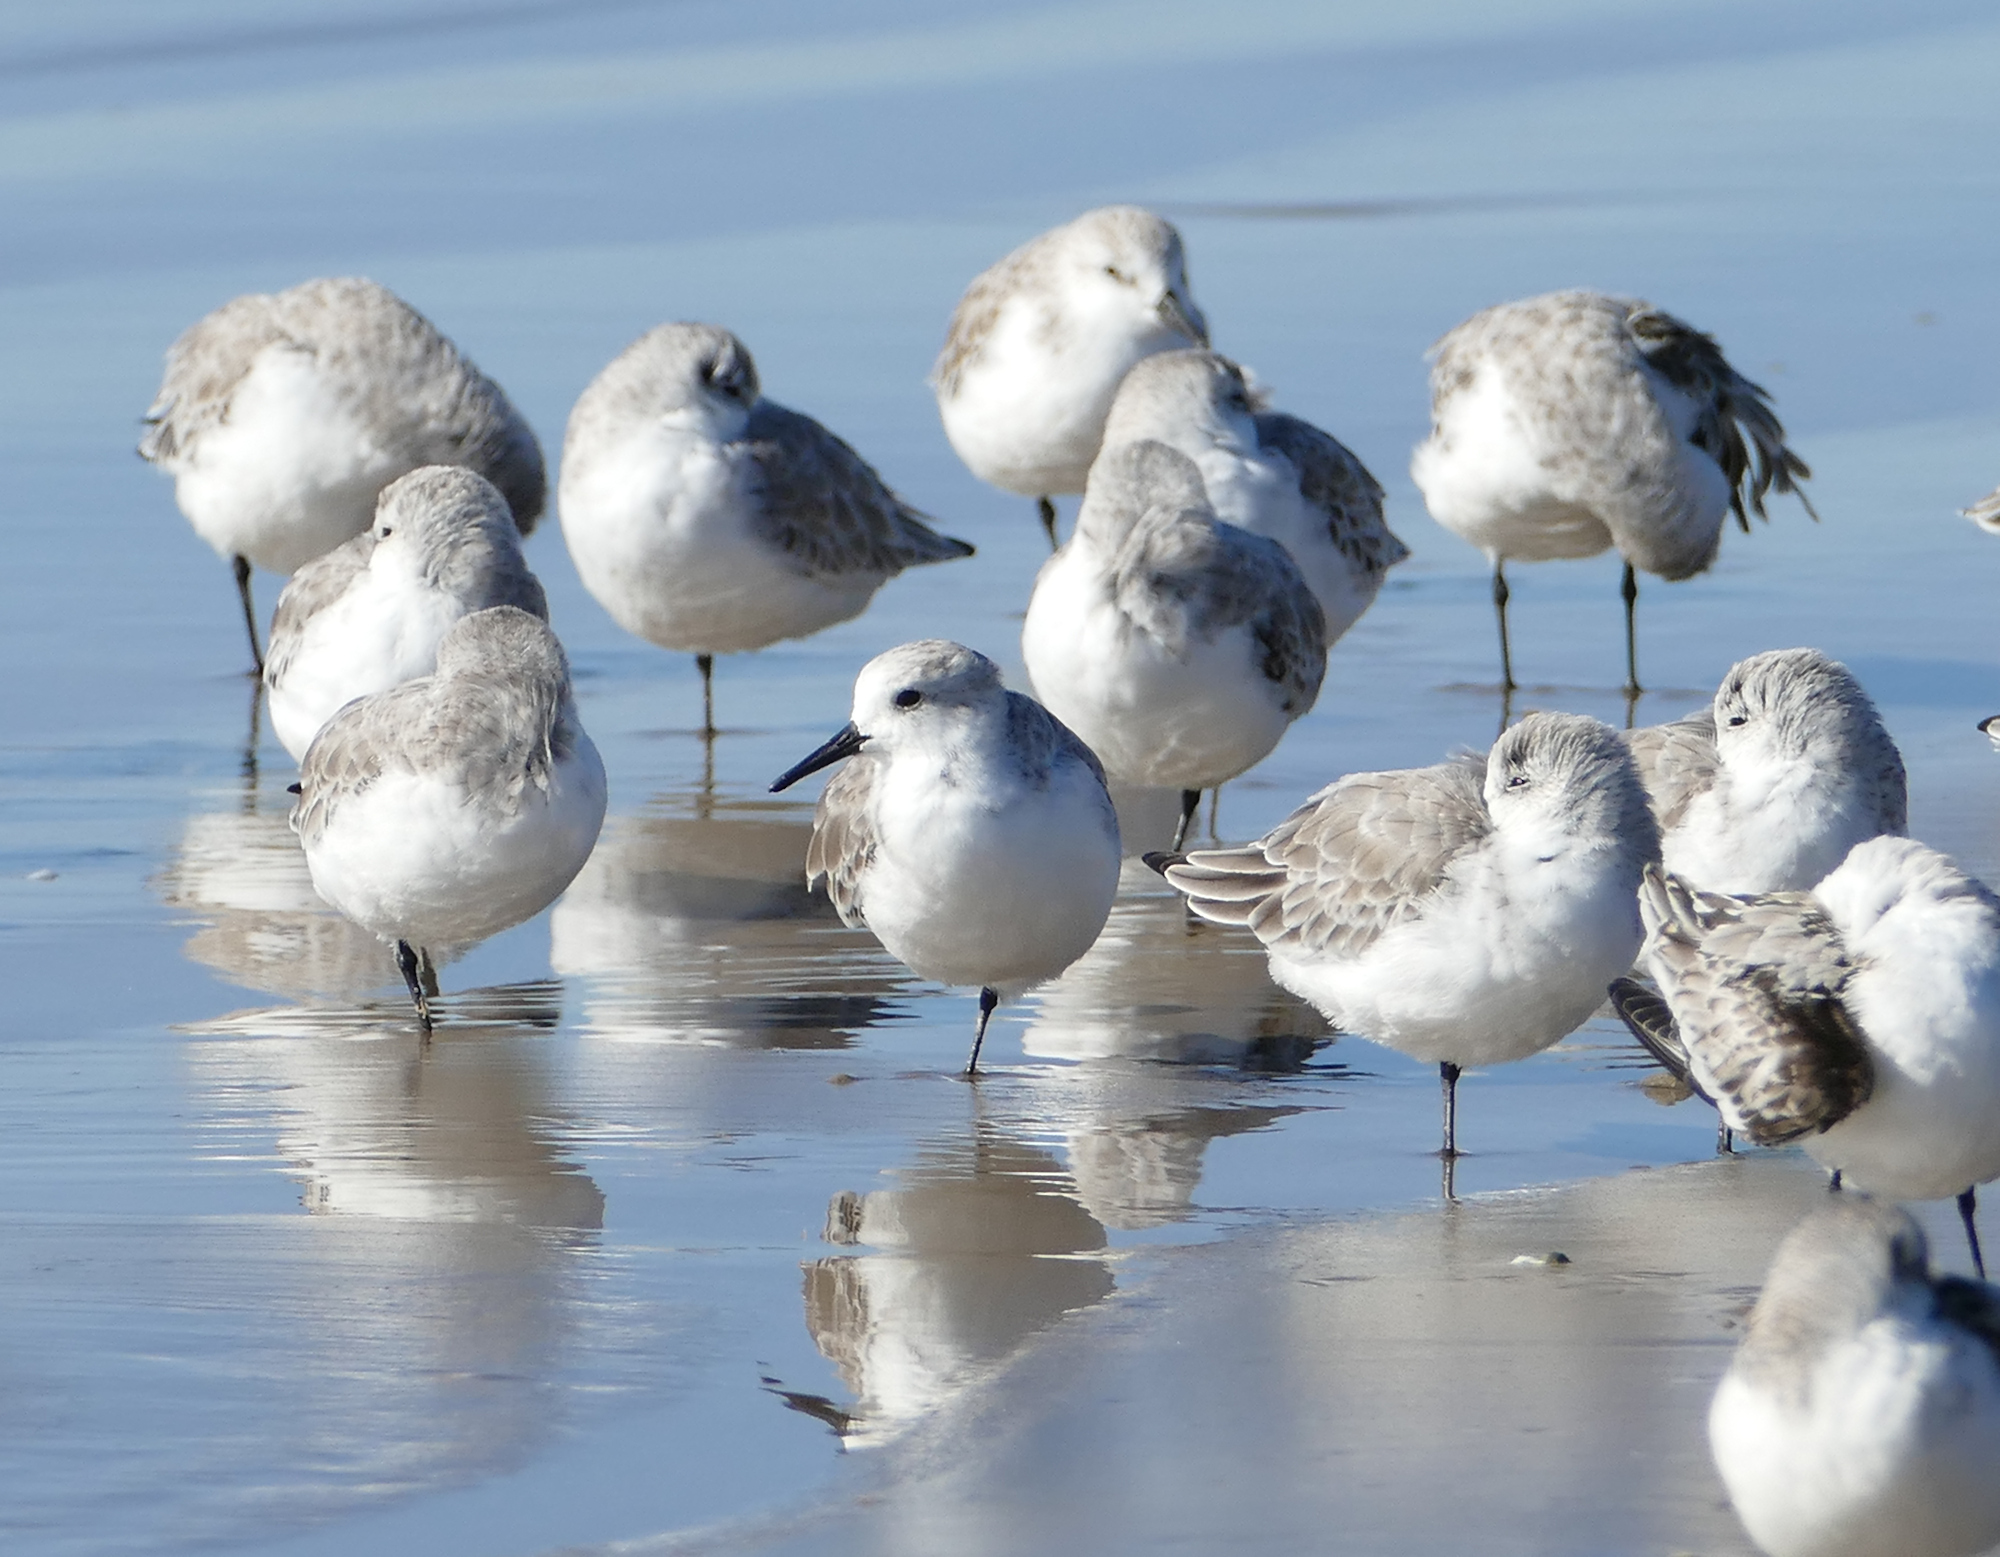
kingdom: Animalia
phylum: Chordata
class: Aves
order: Charadriiformes
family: Scolopacidae
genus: Calidris
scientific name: Calidris alba
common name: Sanderling
